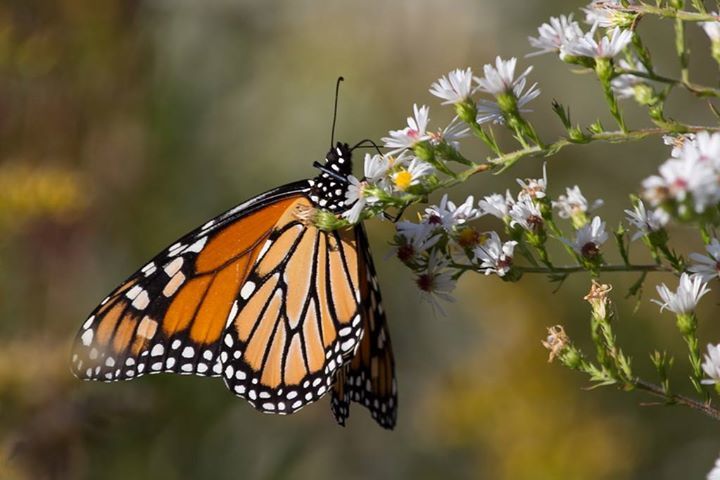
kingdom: Animalia
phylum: Arthropoda
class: Insecta
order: Lepidoptera
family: Nymphalidae
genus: Danaus
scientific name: Danaus plexippus
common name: Monarch
